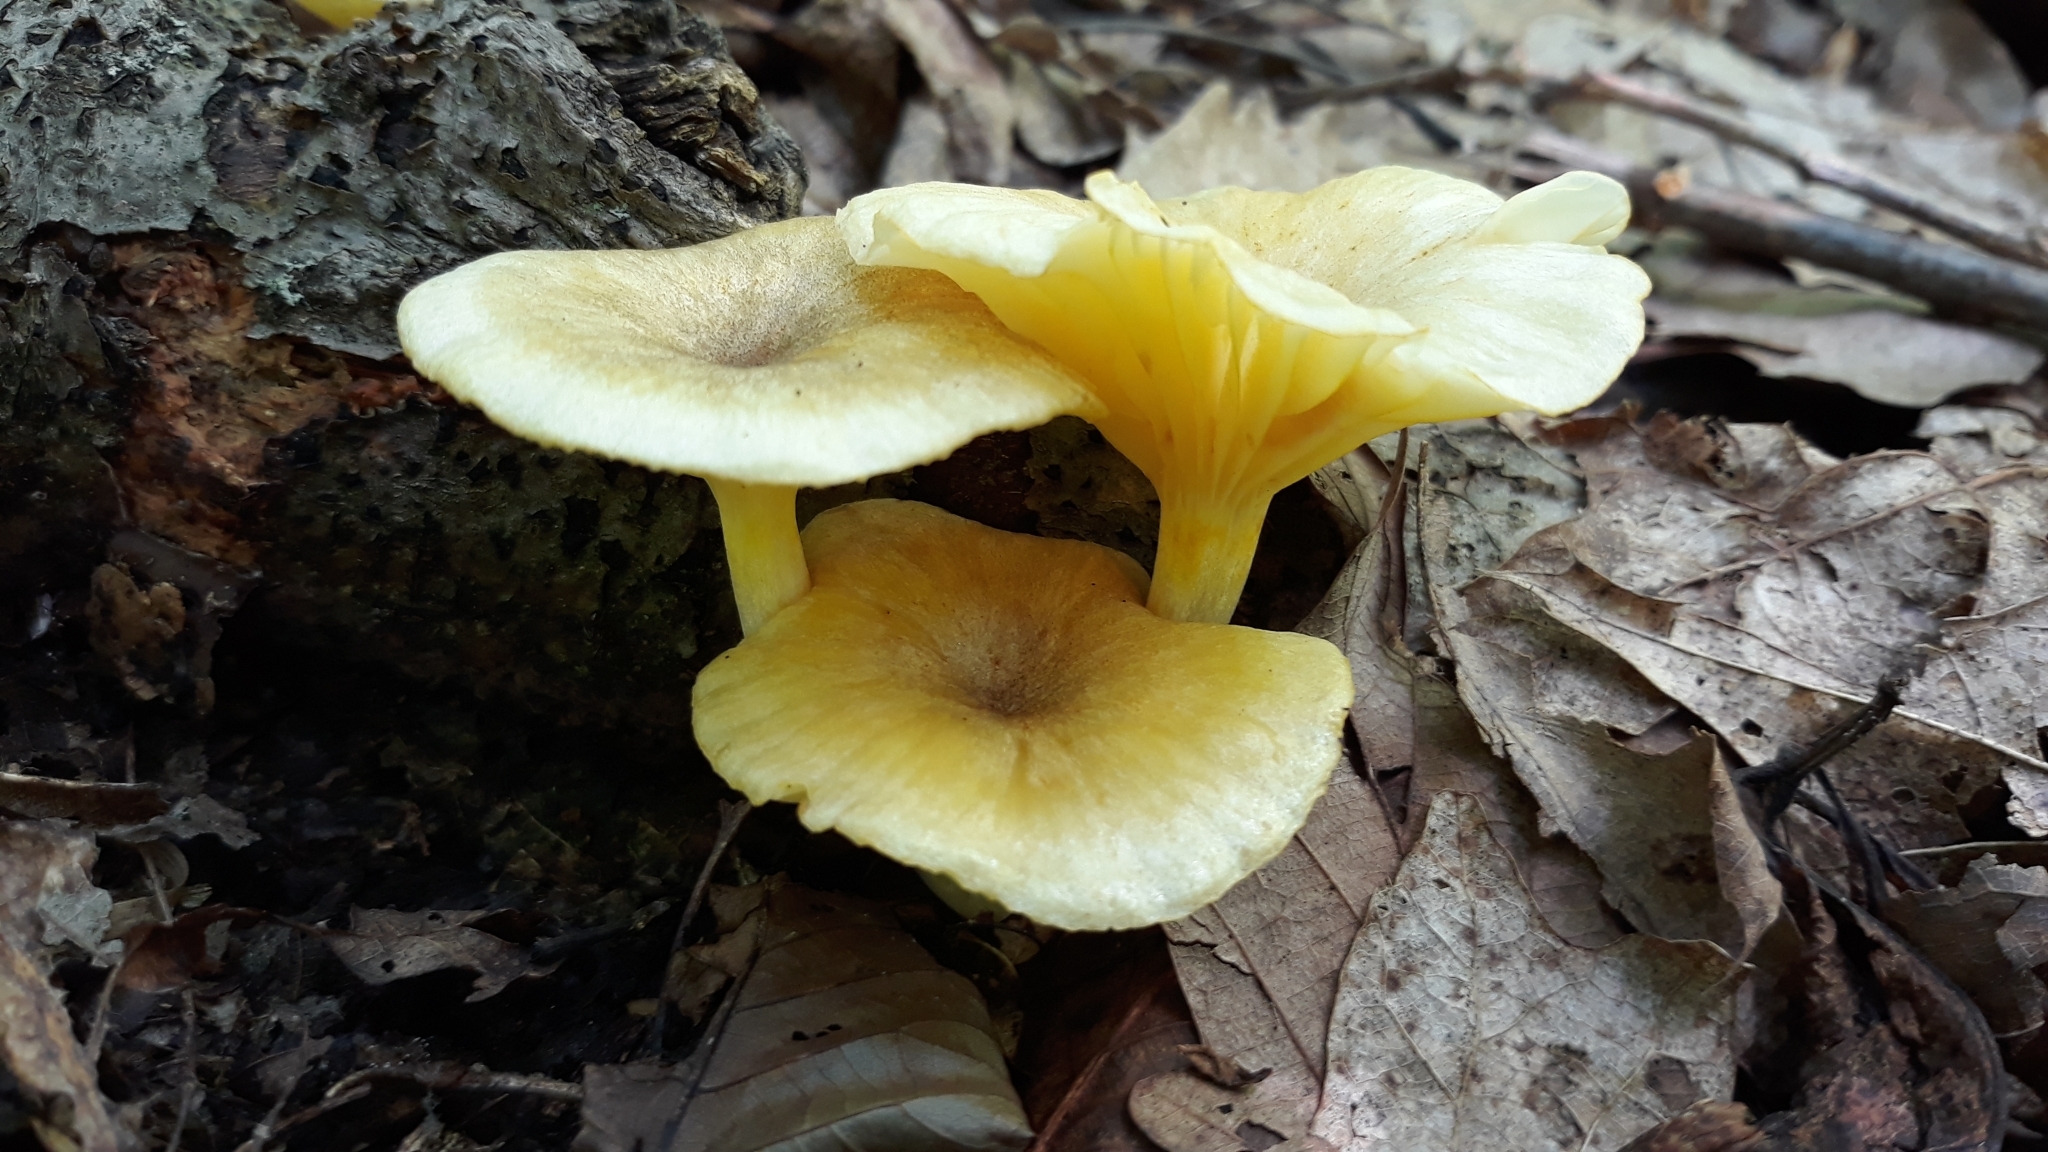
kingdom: Fungi
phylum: Basidiomycota
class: Agaricomycetes
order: Agaricales
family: Marasmiaceae
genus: Gerronema
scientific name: Gerronema strombodes
